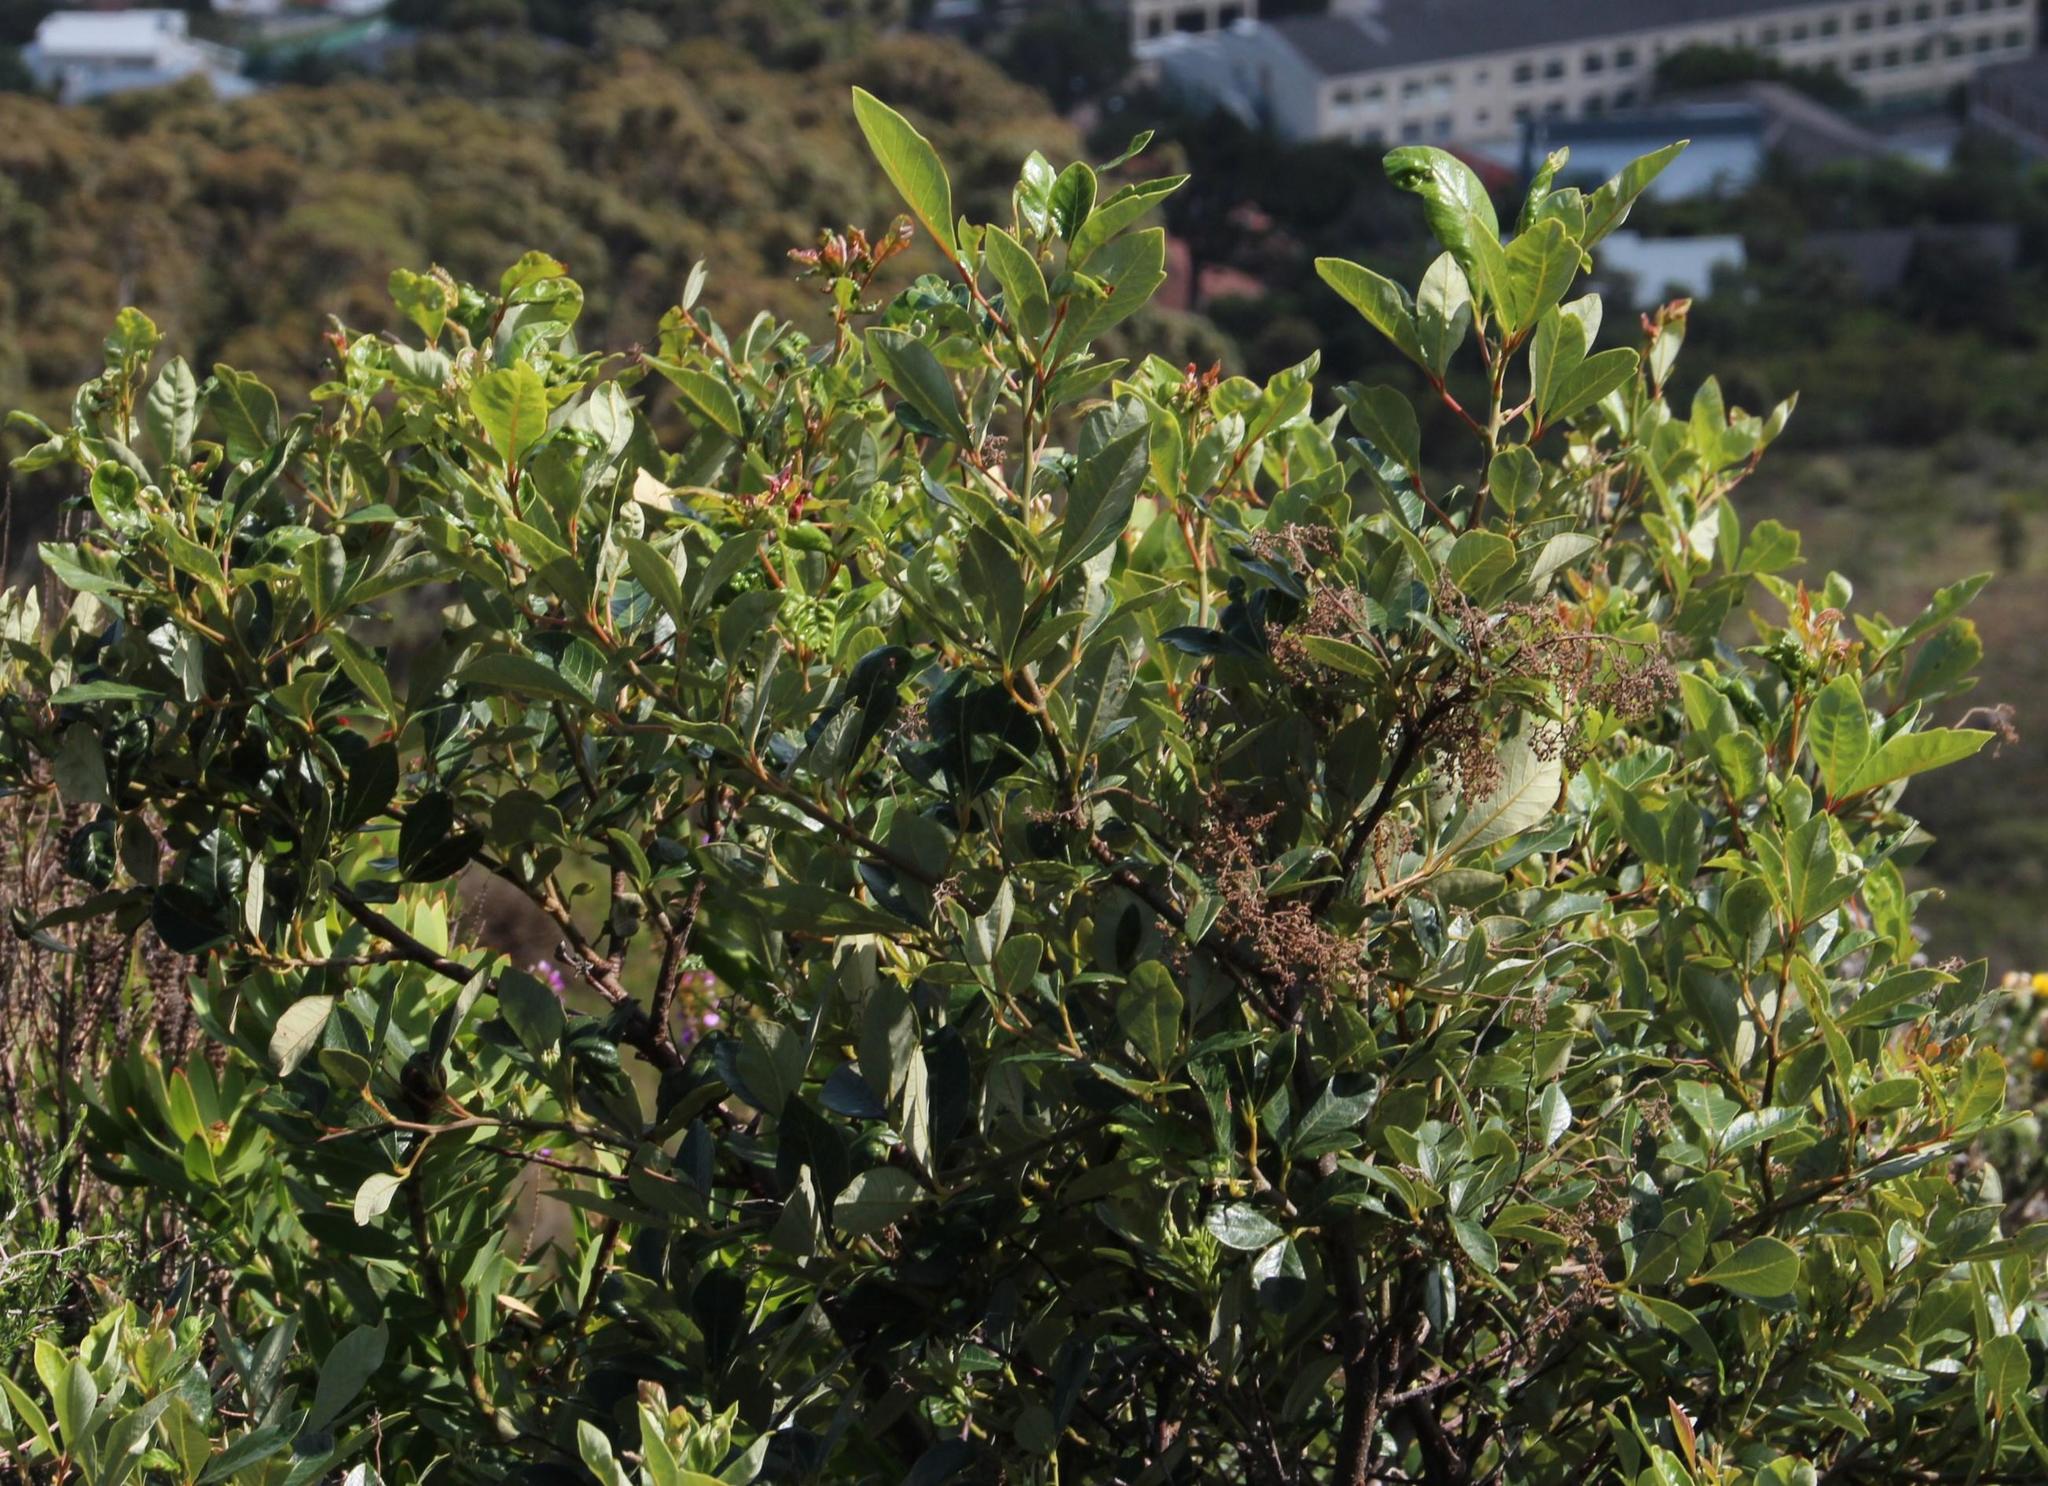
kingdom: Plantae
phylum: Tracheophyta
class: Magnoliopsida
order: Sapindales
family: Anacardiaceae
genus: Searsia
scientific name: Searsia tomentosa
